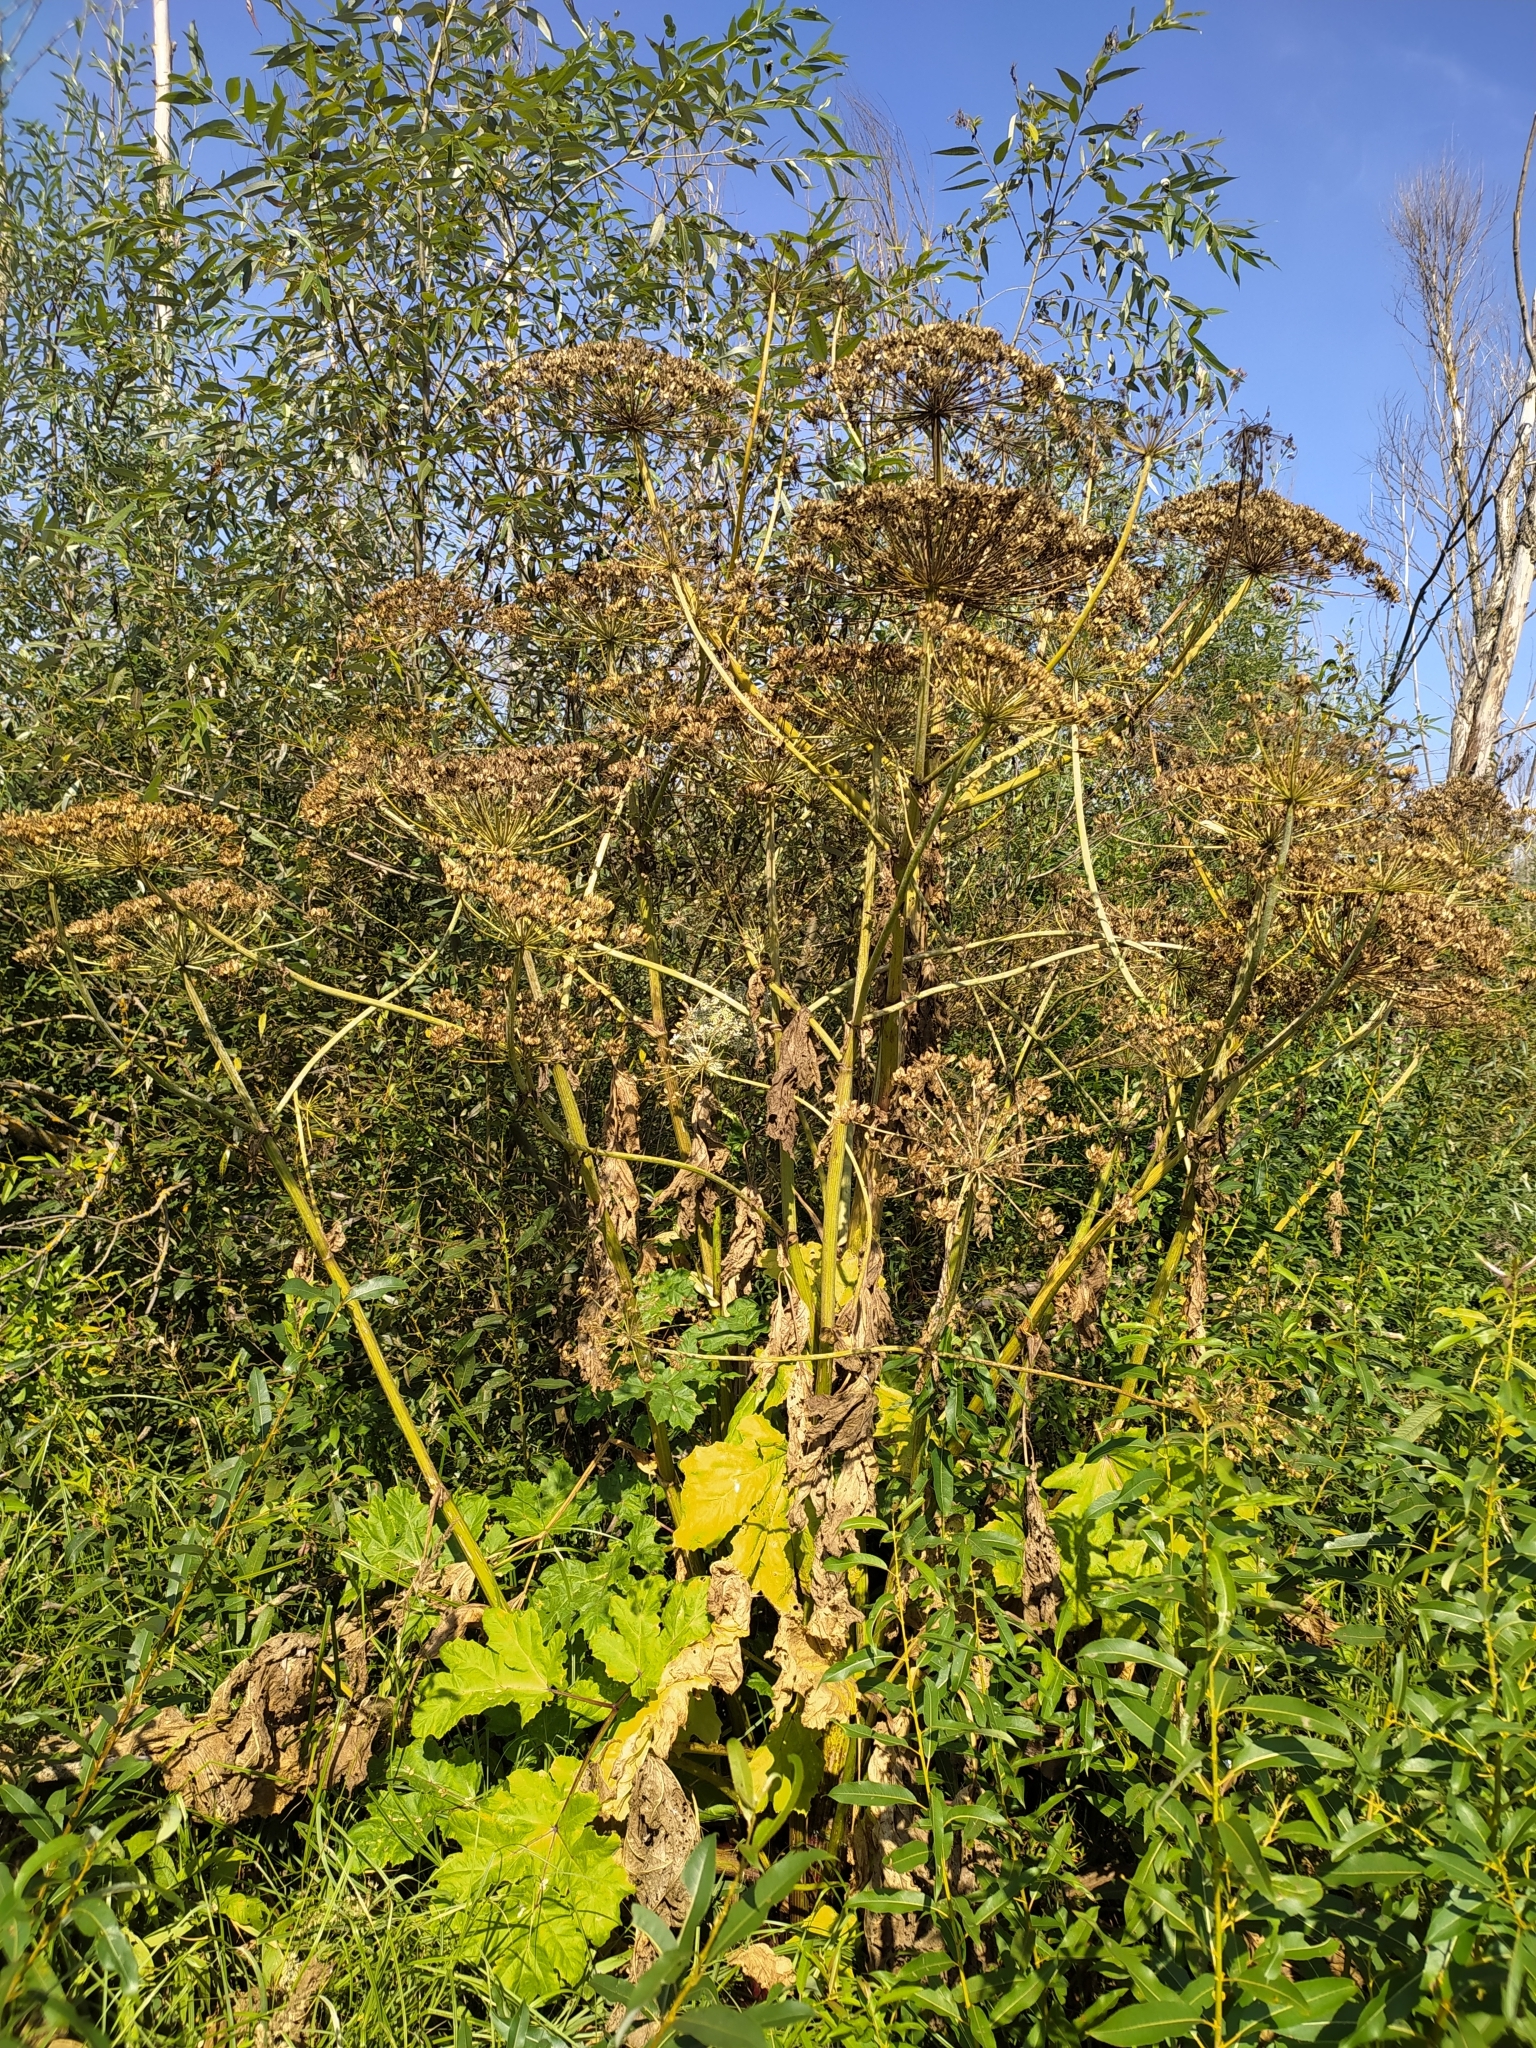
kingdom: Plantae
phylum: Tracheophyta
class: Magnoliopsida
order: Apiales
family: Apiaceae
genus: Heracleum
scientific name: Heracleum sosnowskyi
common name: Sosnowsky's hogweed
